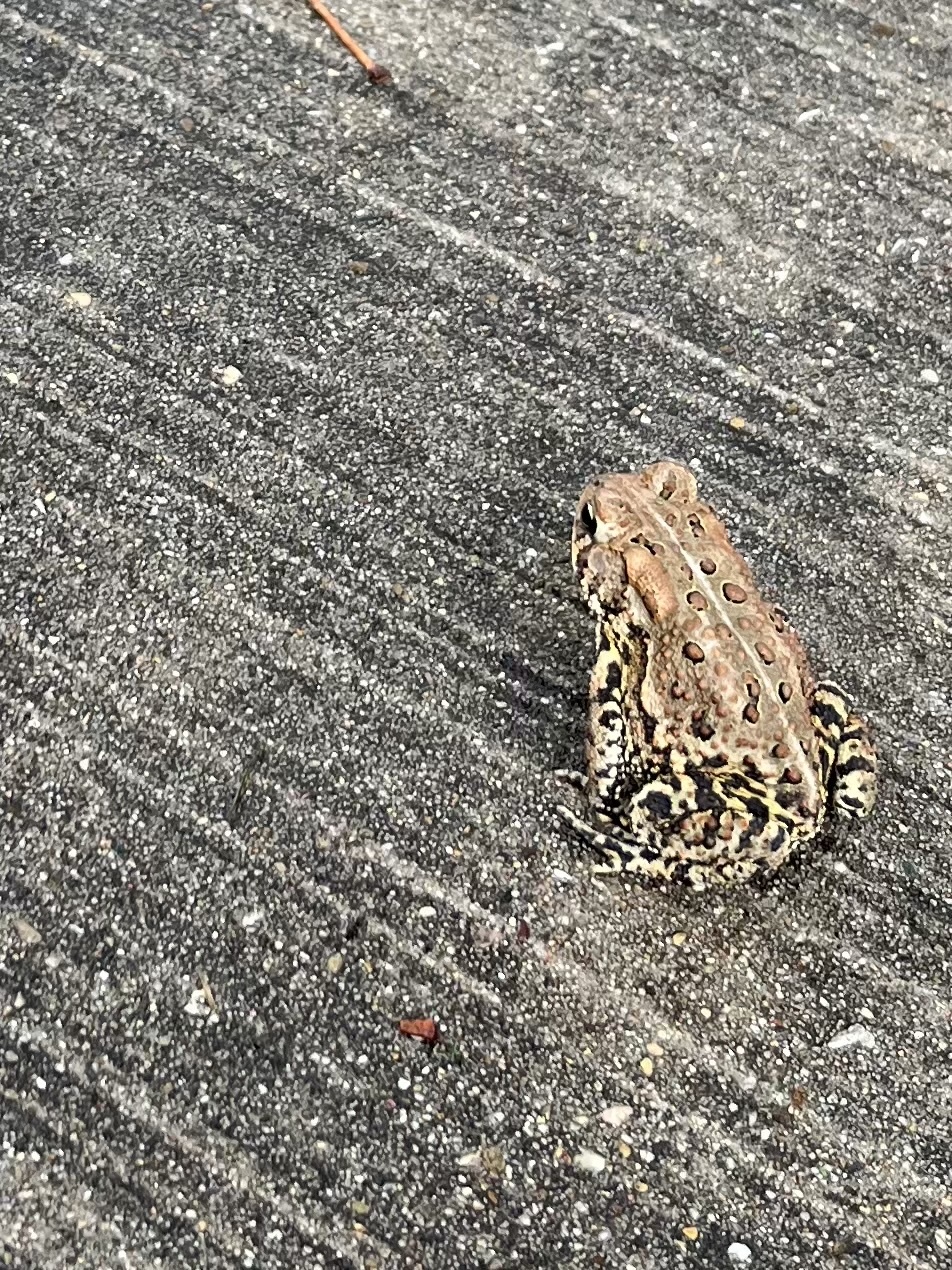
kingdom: Animalia
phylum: Chordata
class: Amphibia
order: Anura
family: Bufonidae
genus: Anaxyrus
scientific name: Anaxyrus americanus
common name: American toad
